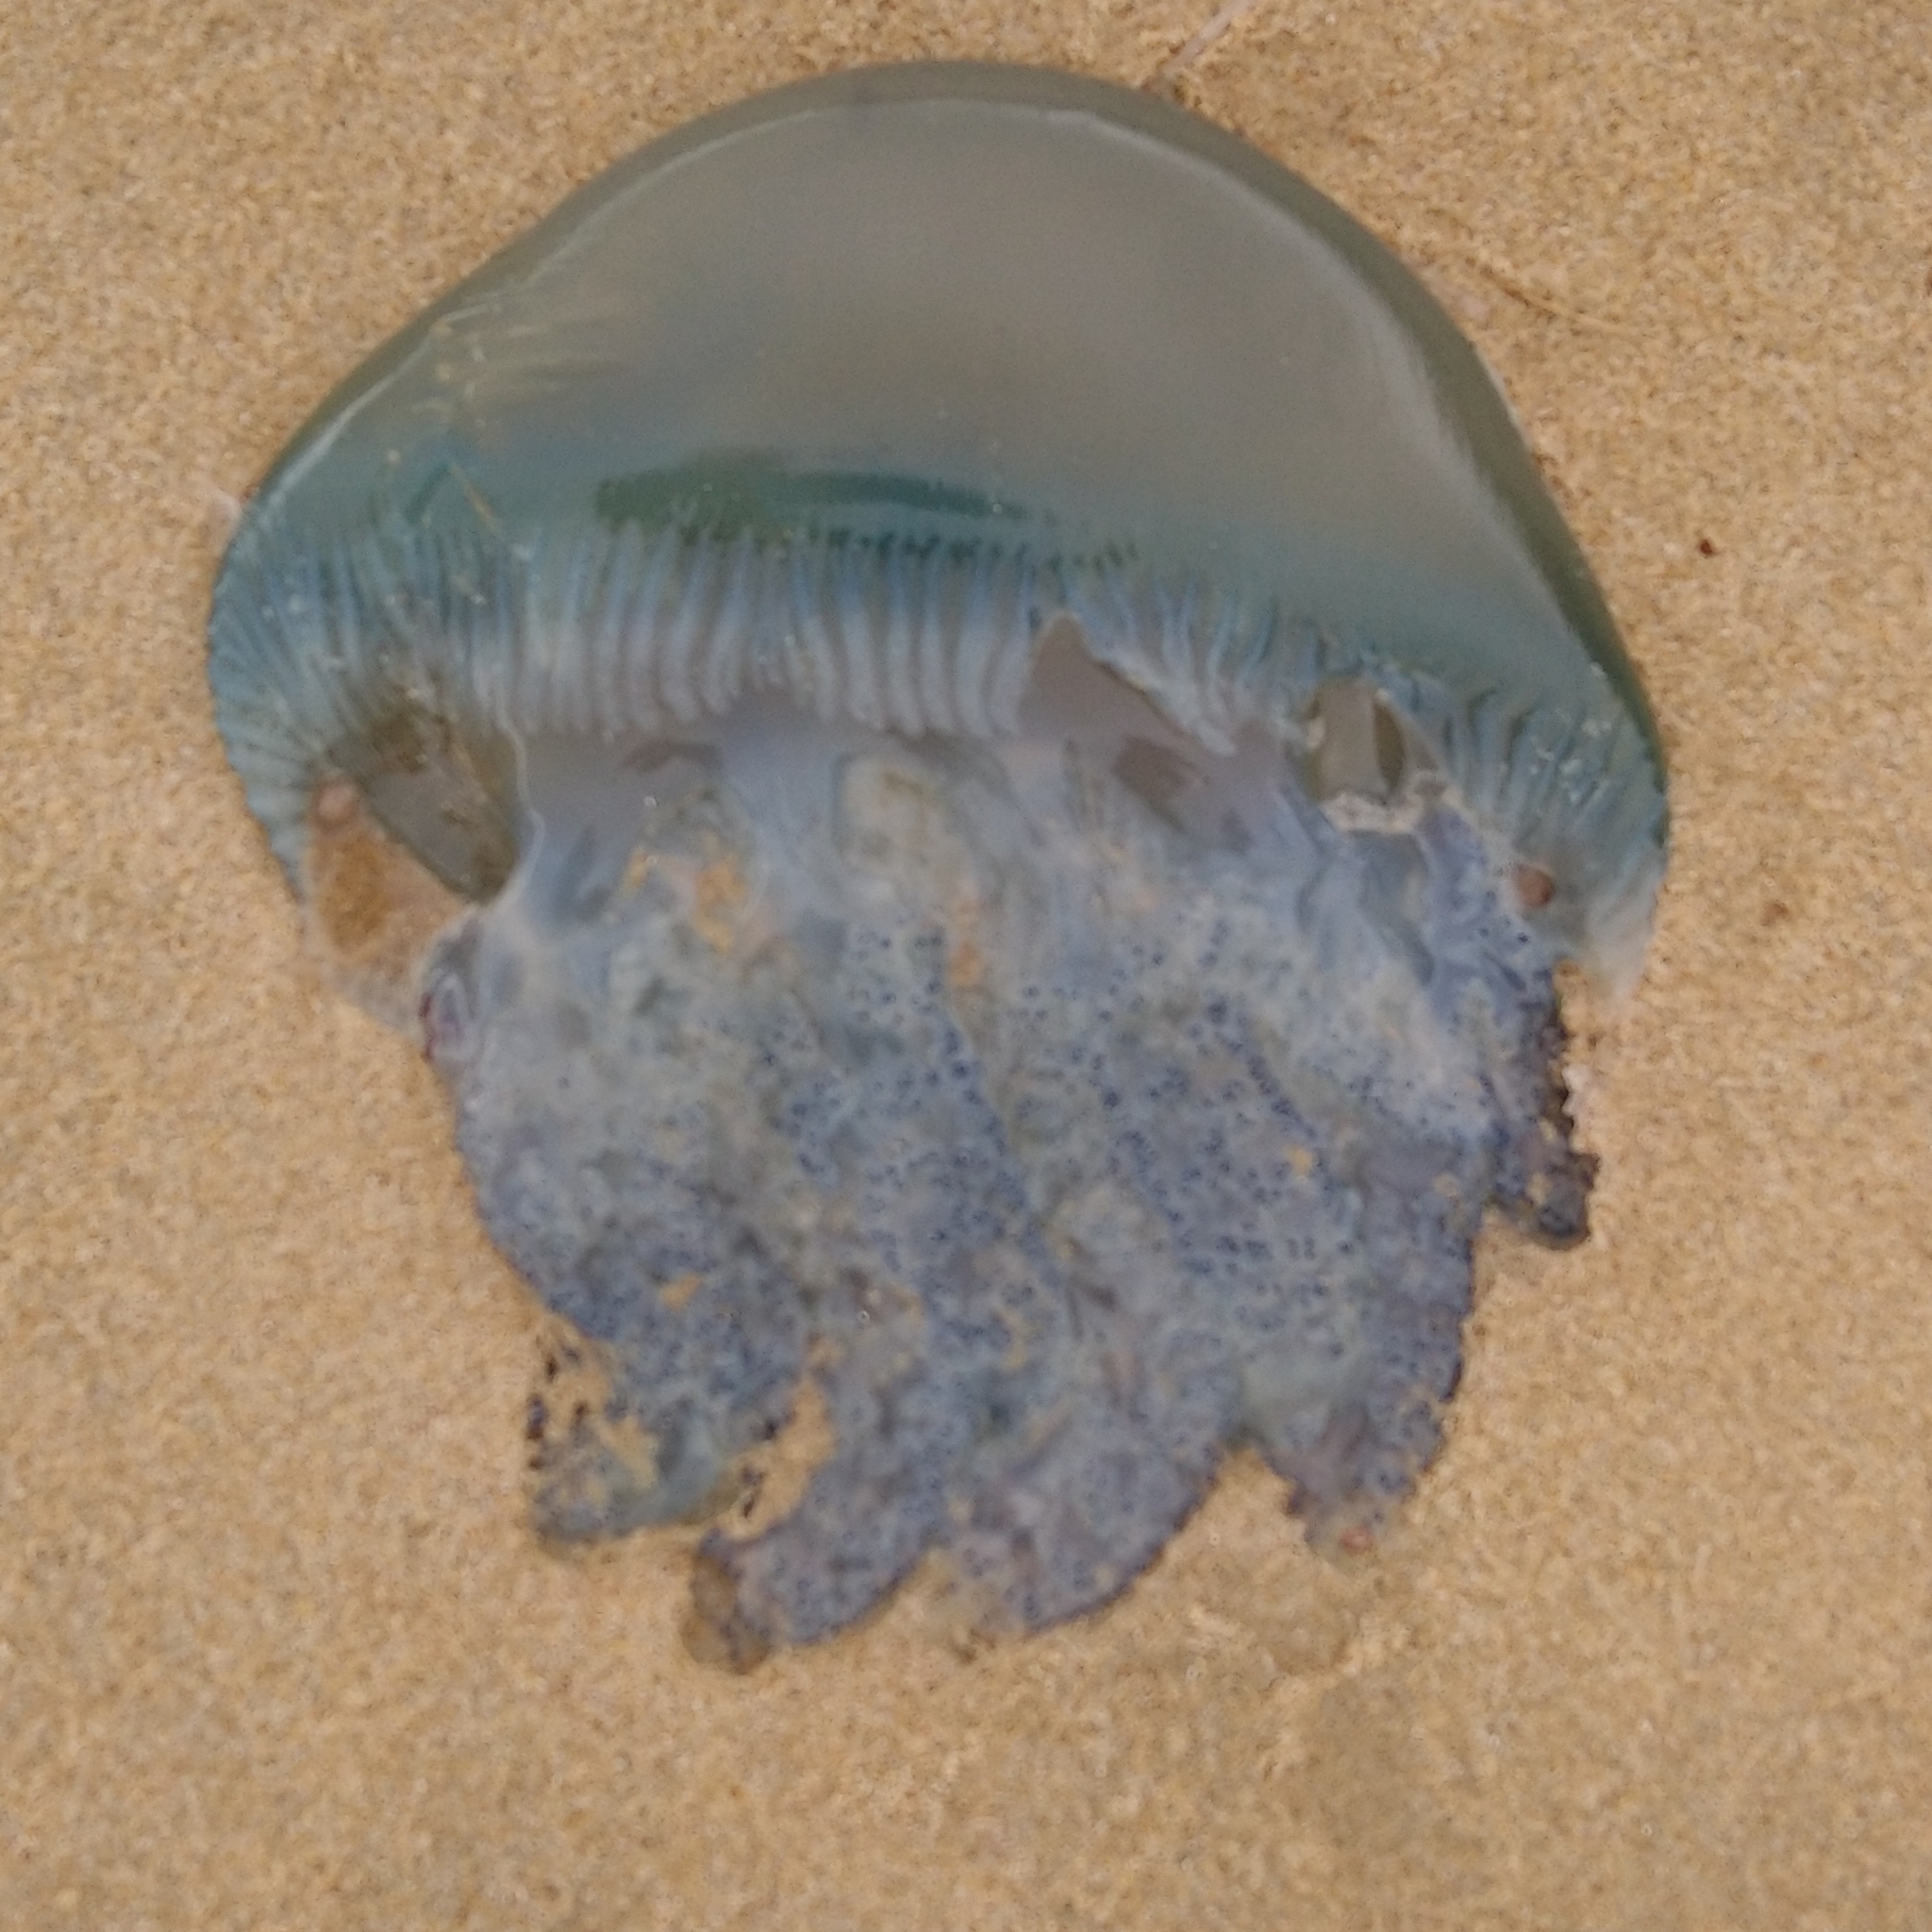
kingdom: Animalia
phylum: Cnidaria
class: Scyphozoa
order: Rhizostomeae
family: Catostylidae
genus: Crambionella
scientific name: Crambionella stuhlmanni
